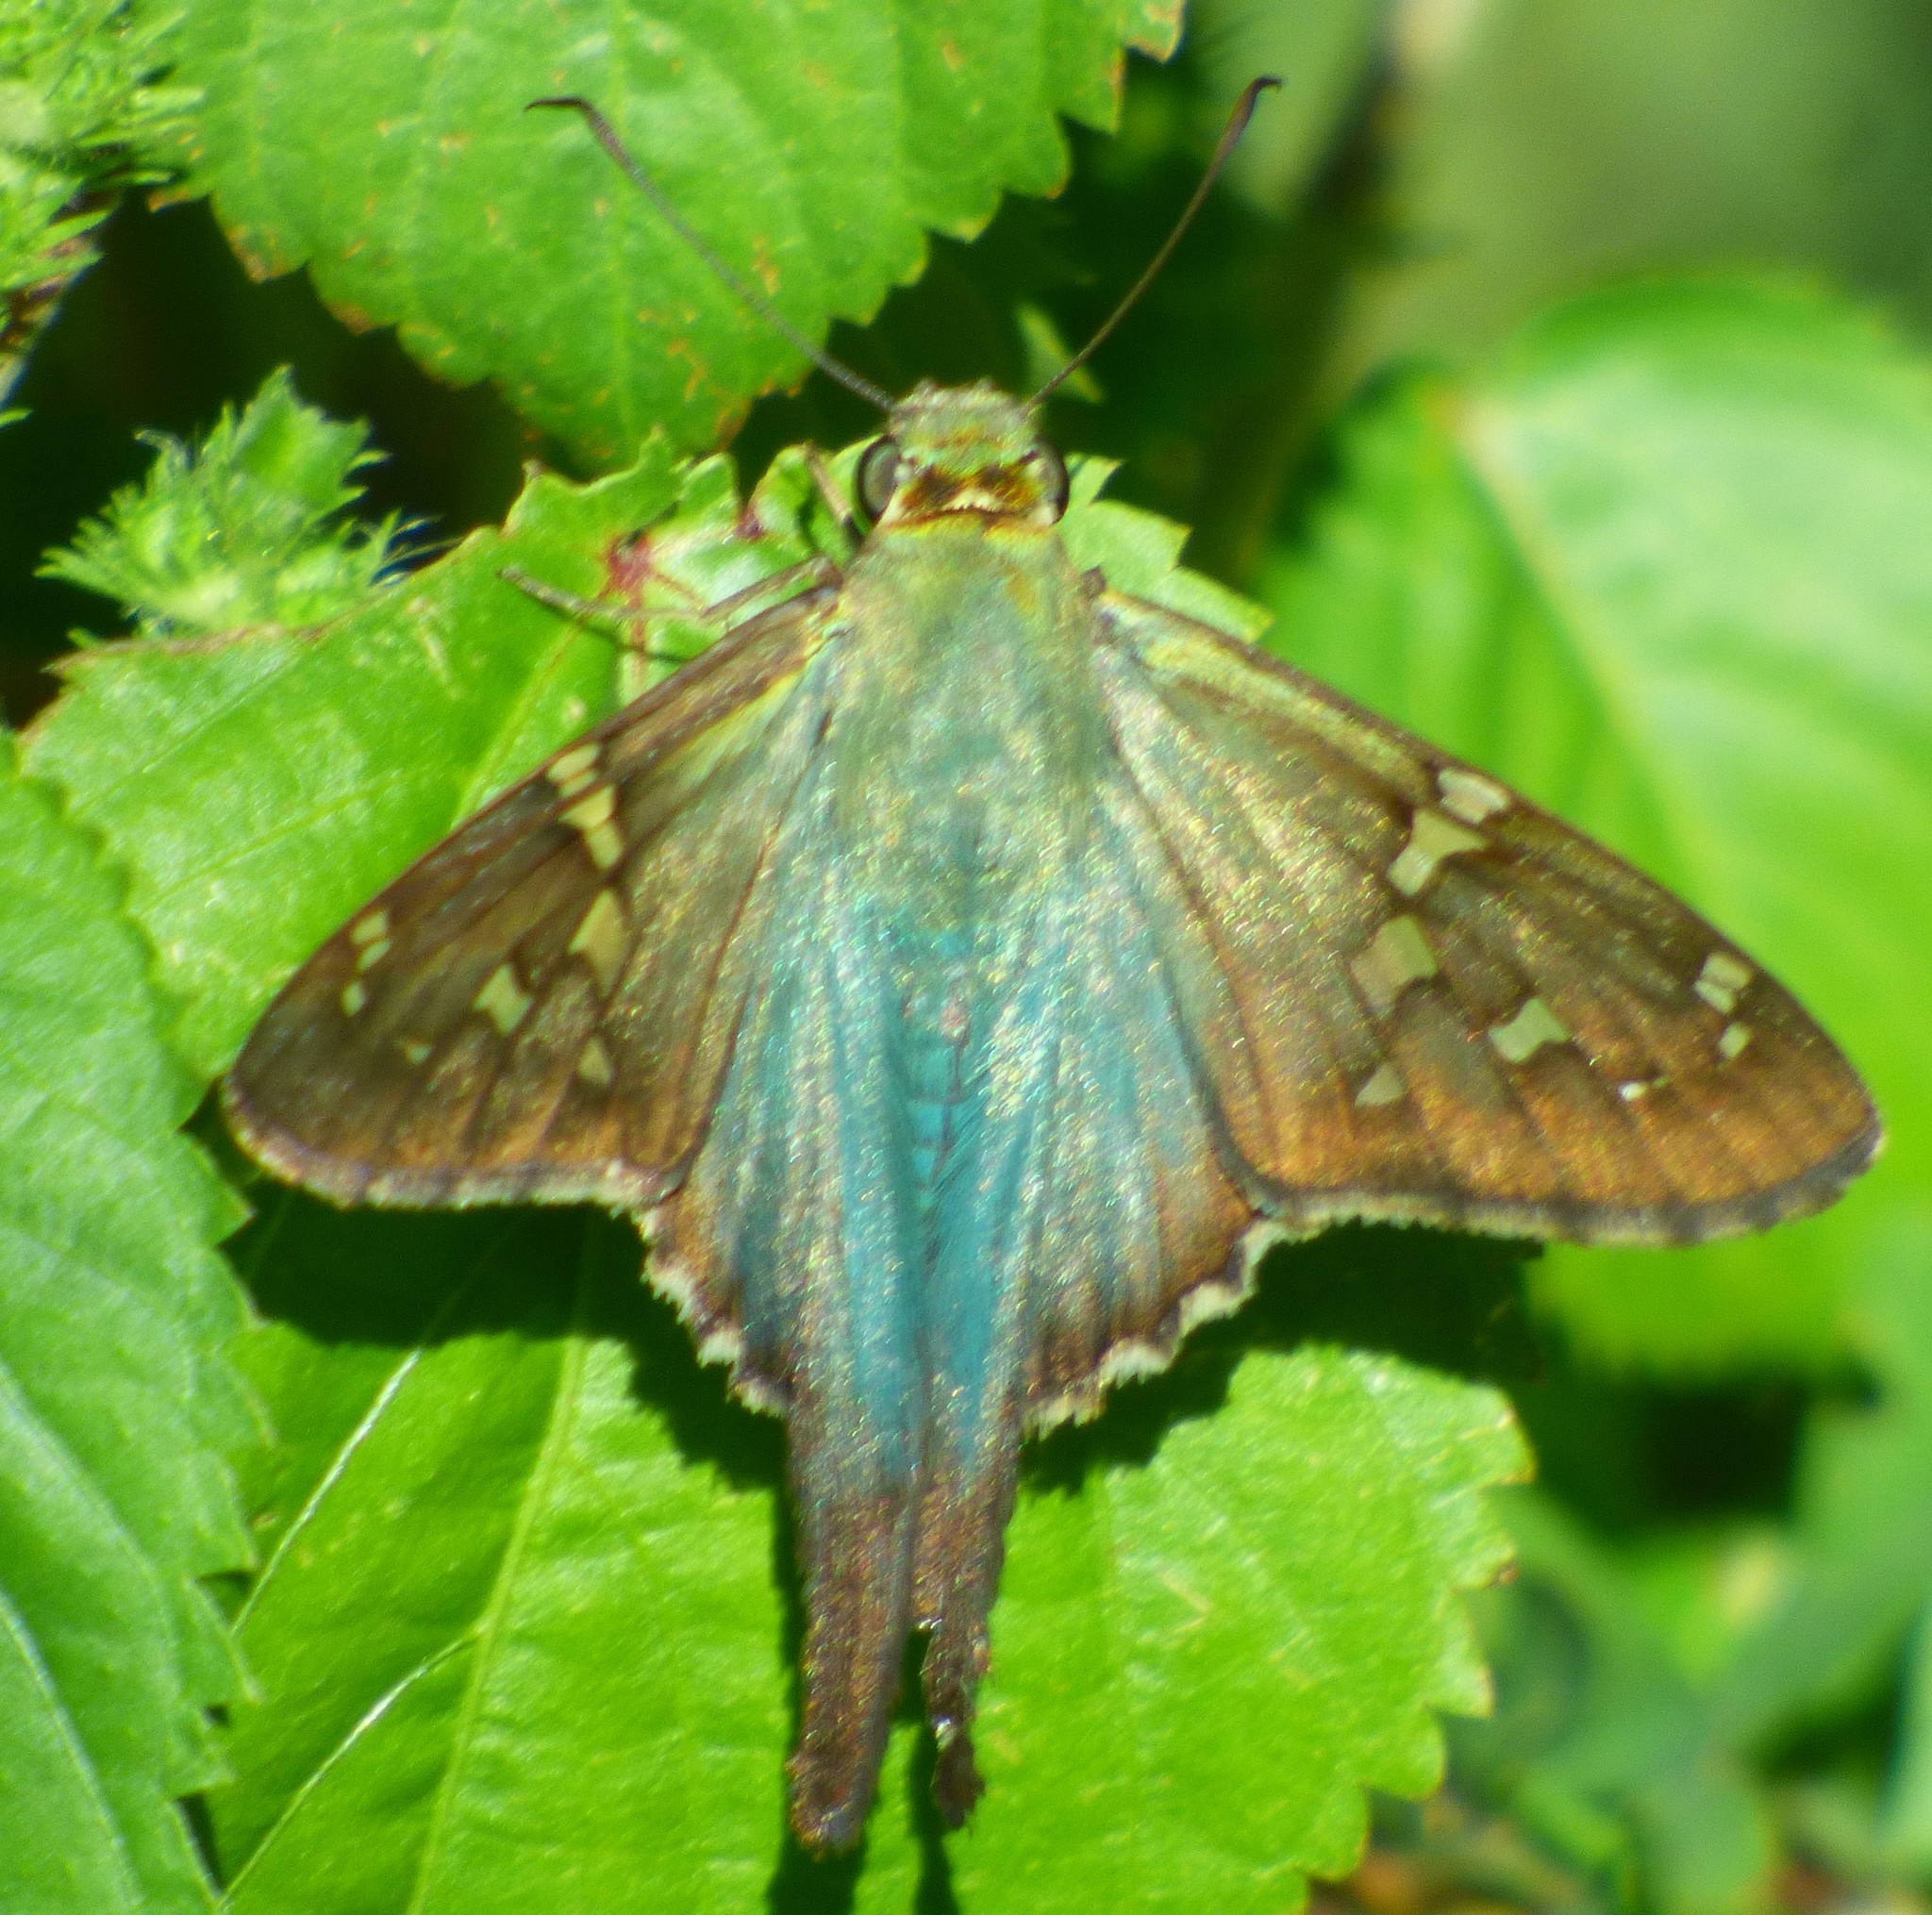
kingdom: Animalia
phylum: Arthropoda
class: Insecta
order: Lepidoptera
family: Hesperiidae
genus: Urbanus
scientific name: Urbanus proteus
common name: Long-tailed skipper
